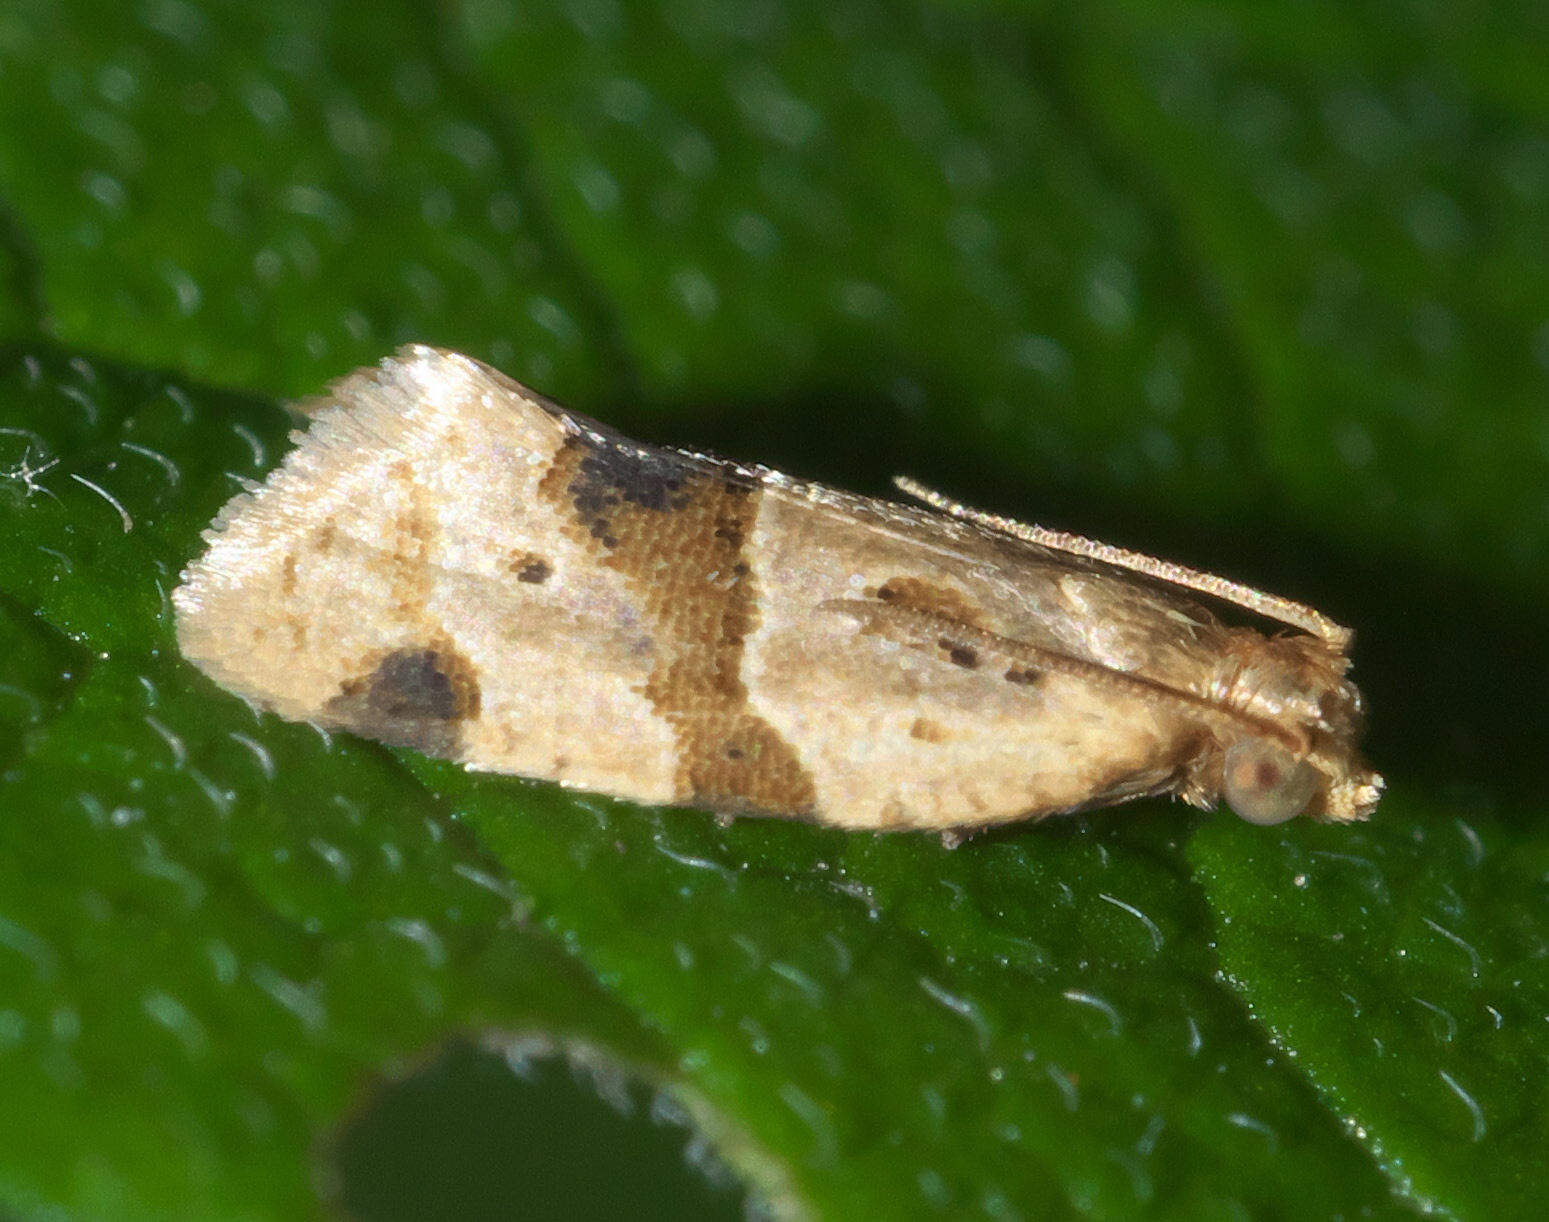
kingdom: Animalia
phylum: Arthropoda
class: Insecta
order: Lepidoptera
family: Tortricidae
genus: Clepsis
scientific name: Clepsis peritana
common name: Garden tortrix
